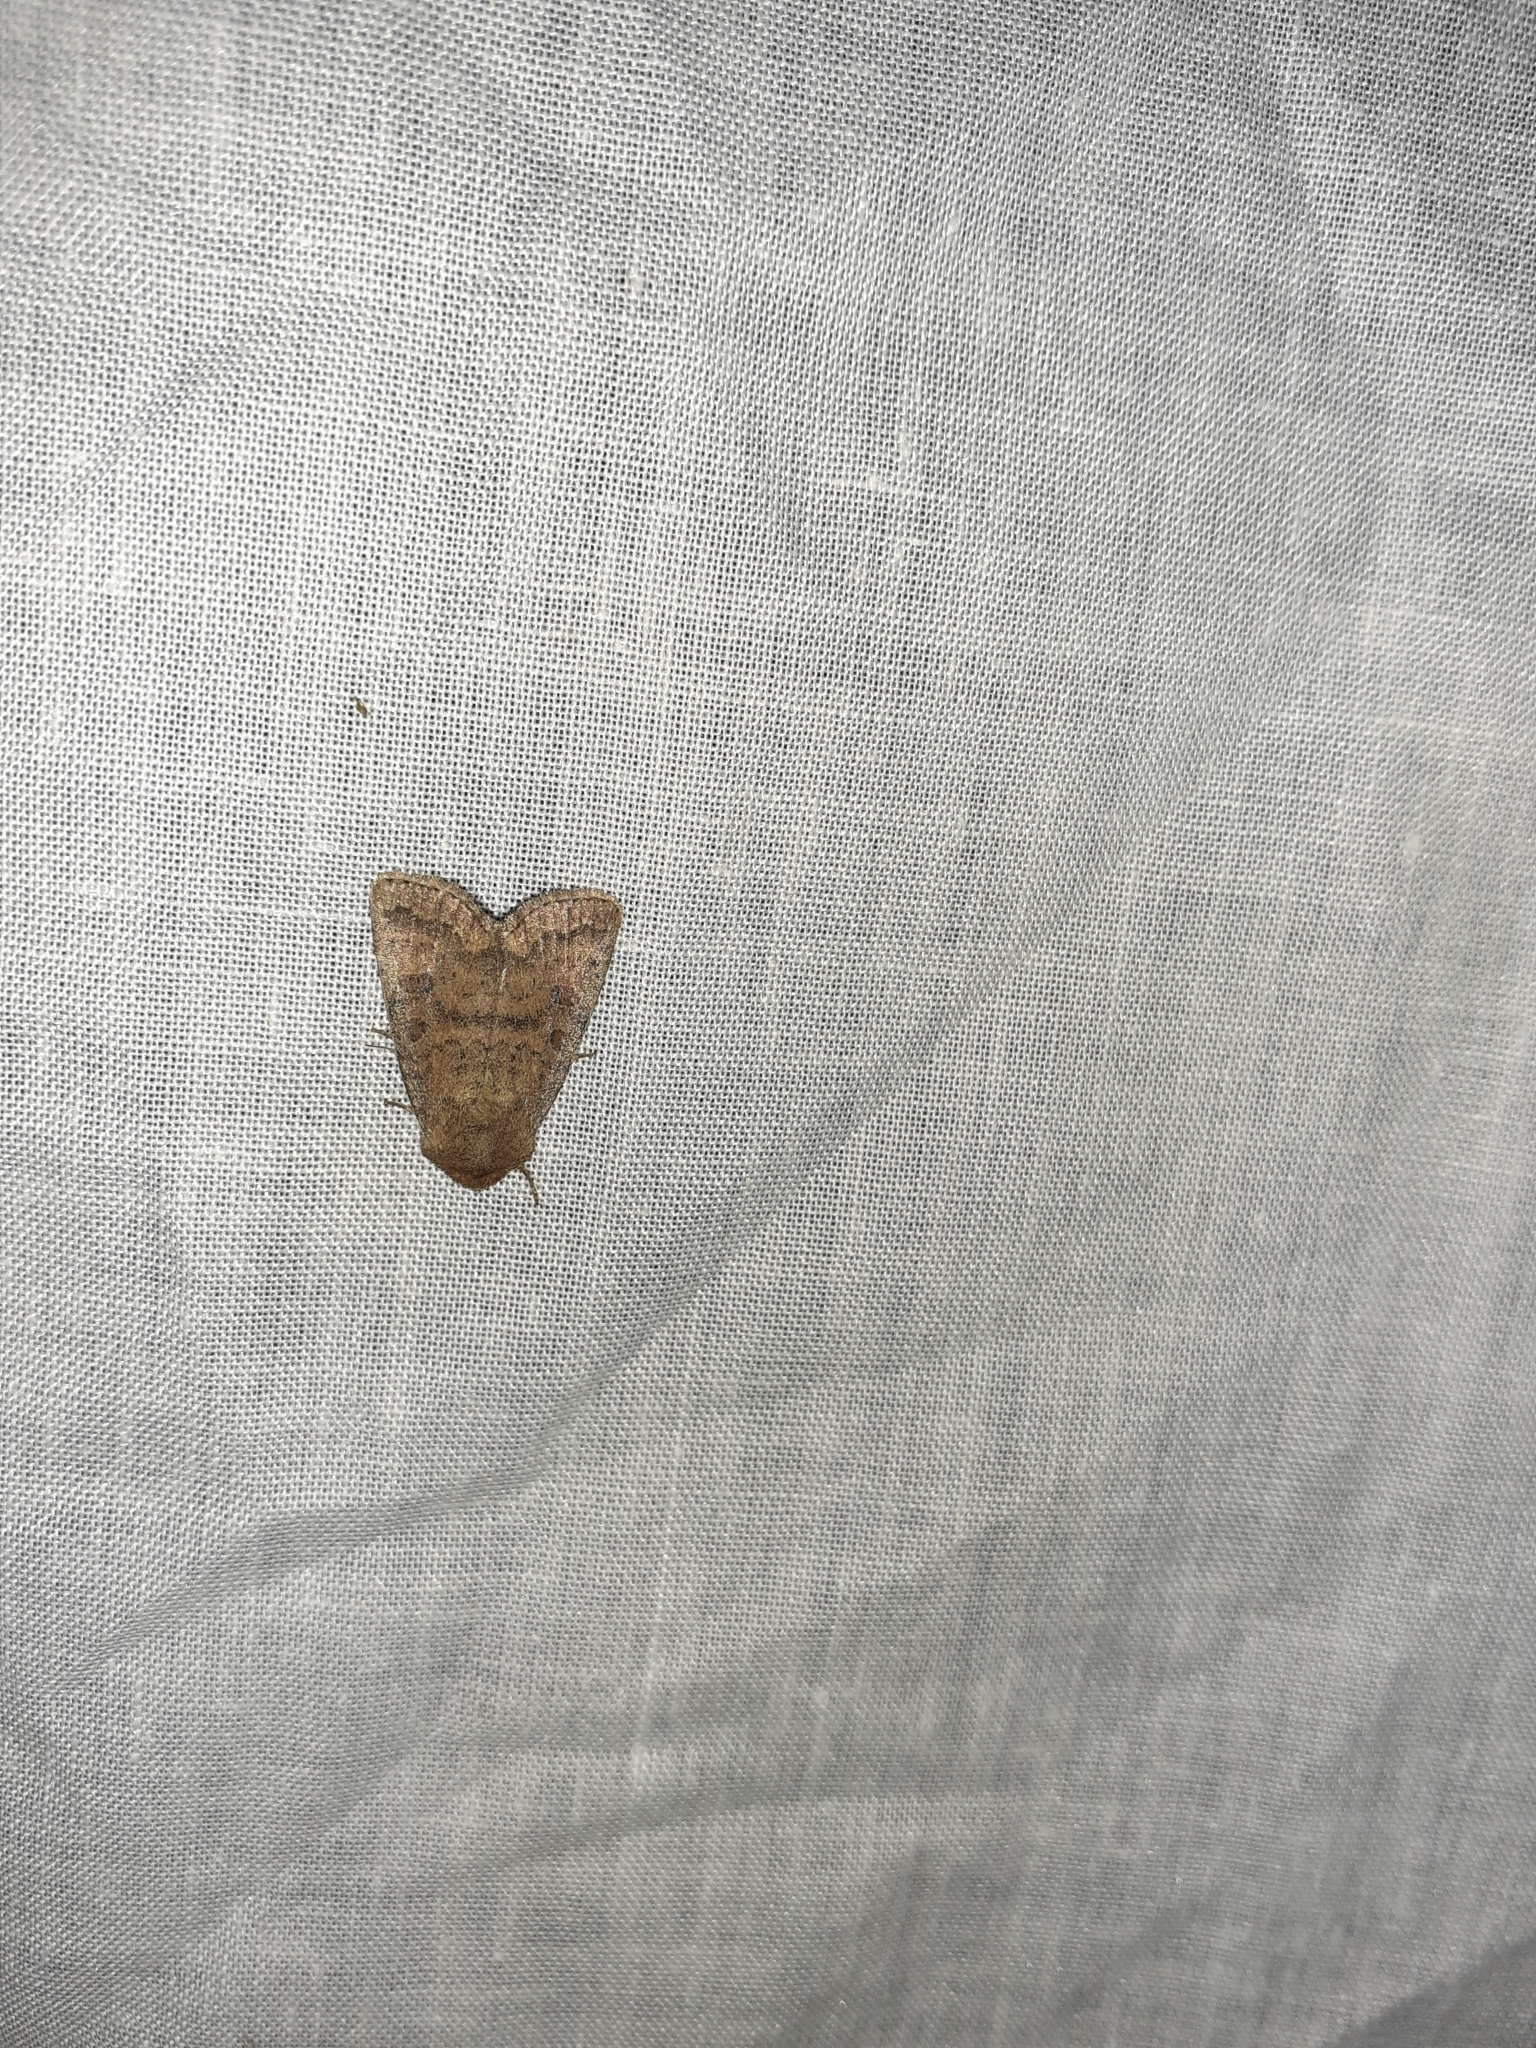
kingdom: Animalia
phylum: Arthropoda
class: Insecta
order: Lepidoptera
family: Noctuidae
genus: Hoplodrina
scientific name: Hoplodrina octogenaria
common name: Uncertain
